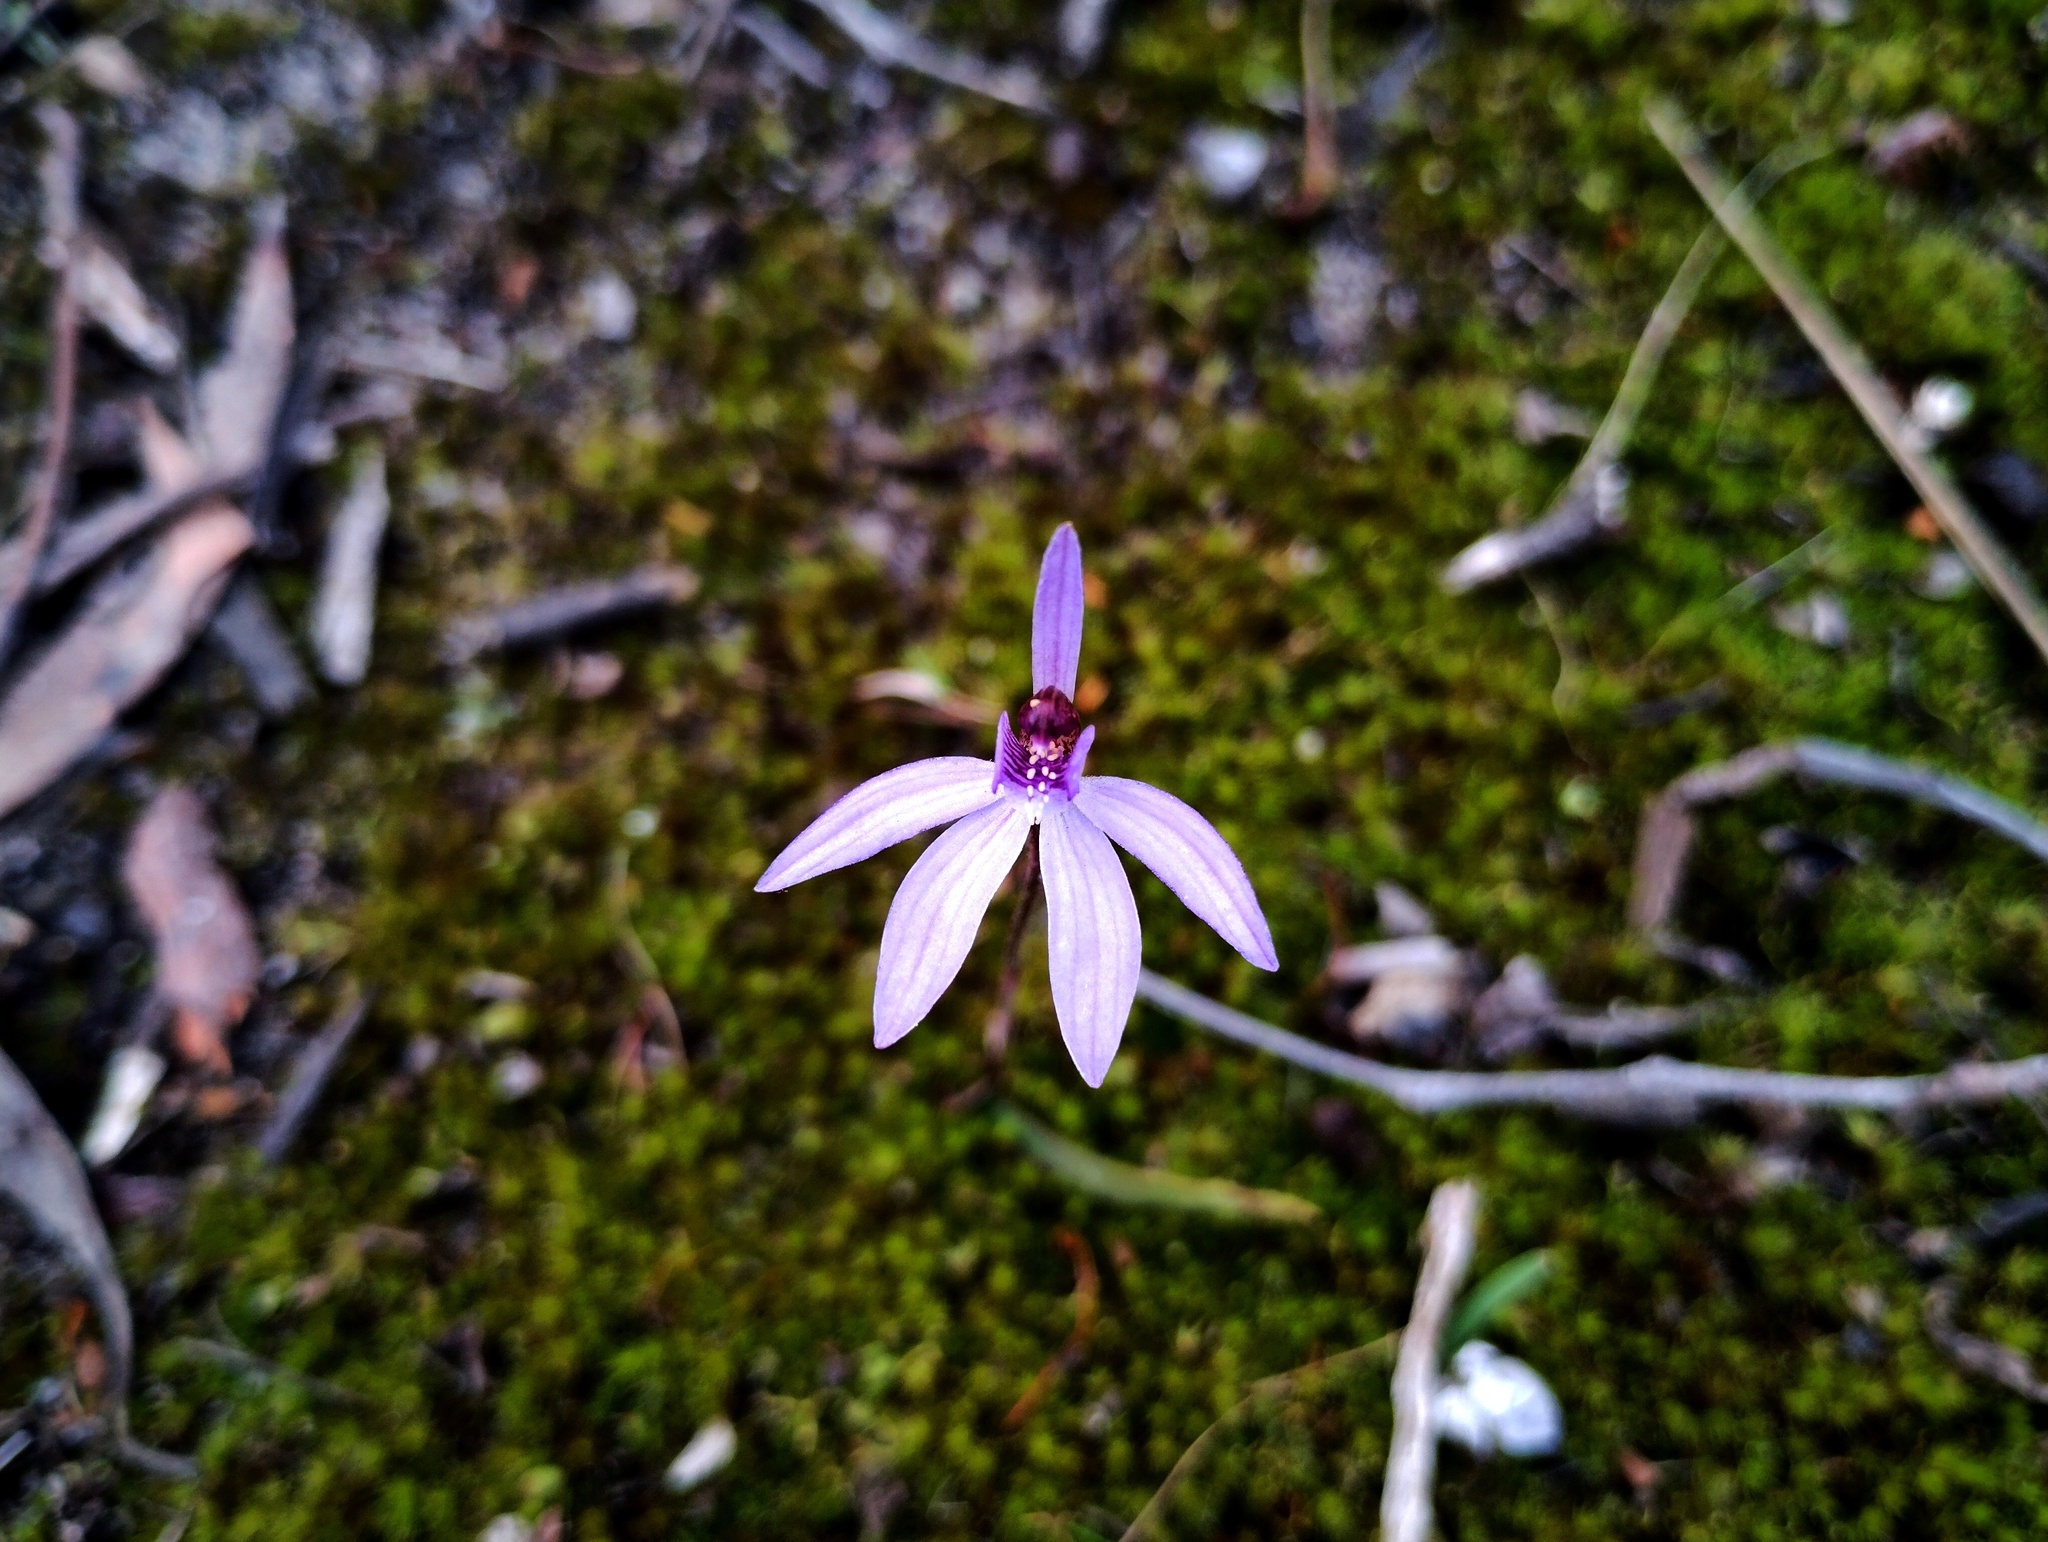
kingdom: Plantae
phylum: Tracheophyta
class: Liliopsida
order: Asparagales
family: Orchidaceae
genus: Caladenia
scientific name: Caladenia caerulea
